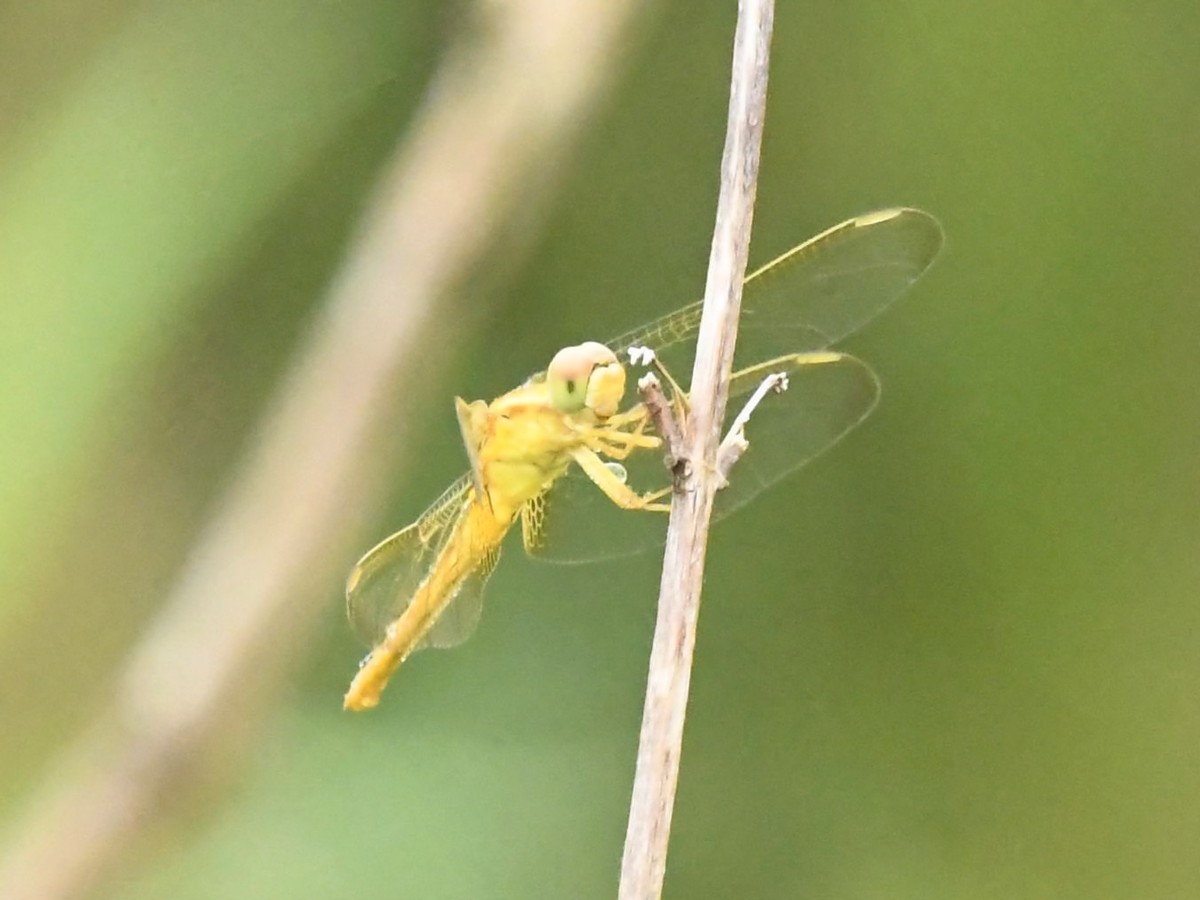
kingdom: Animalia
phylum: Arthropoda
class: Insecta
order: Odonata
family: Libellulidae
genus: Crocothemis
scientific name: Crocothemis servilia
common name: Scarlet skimmer
